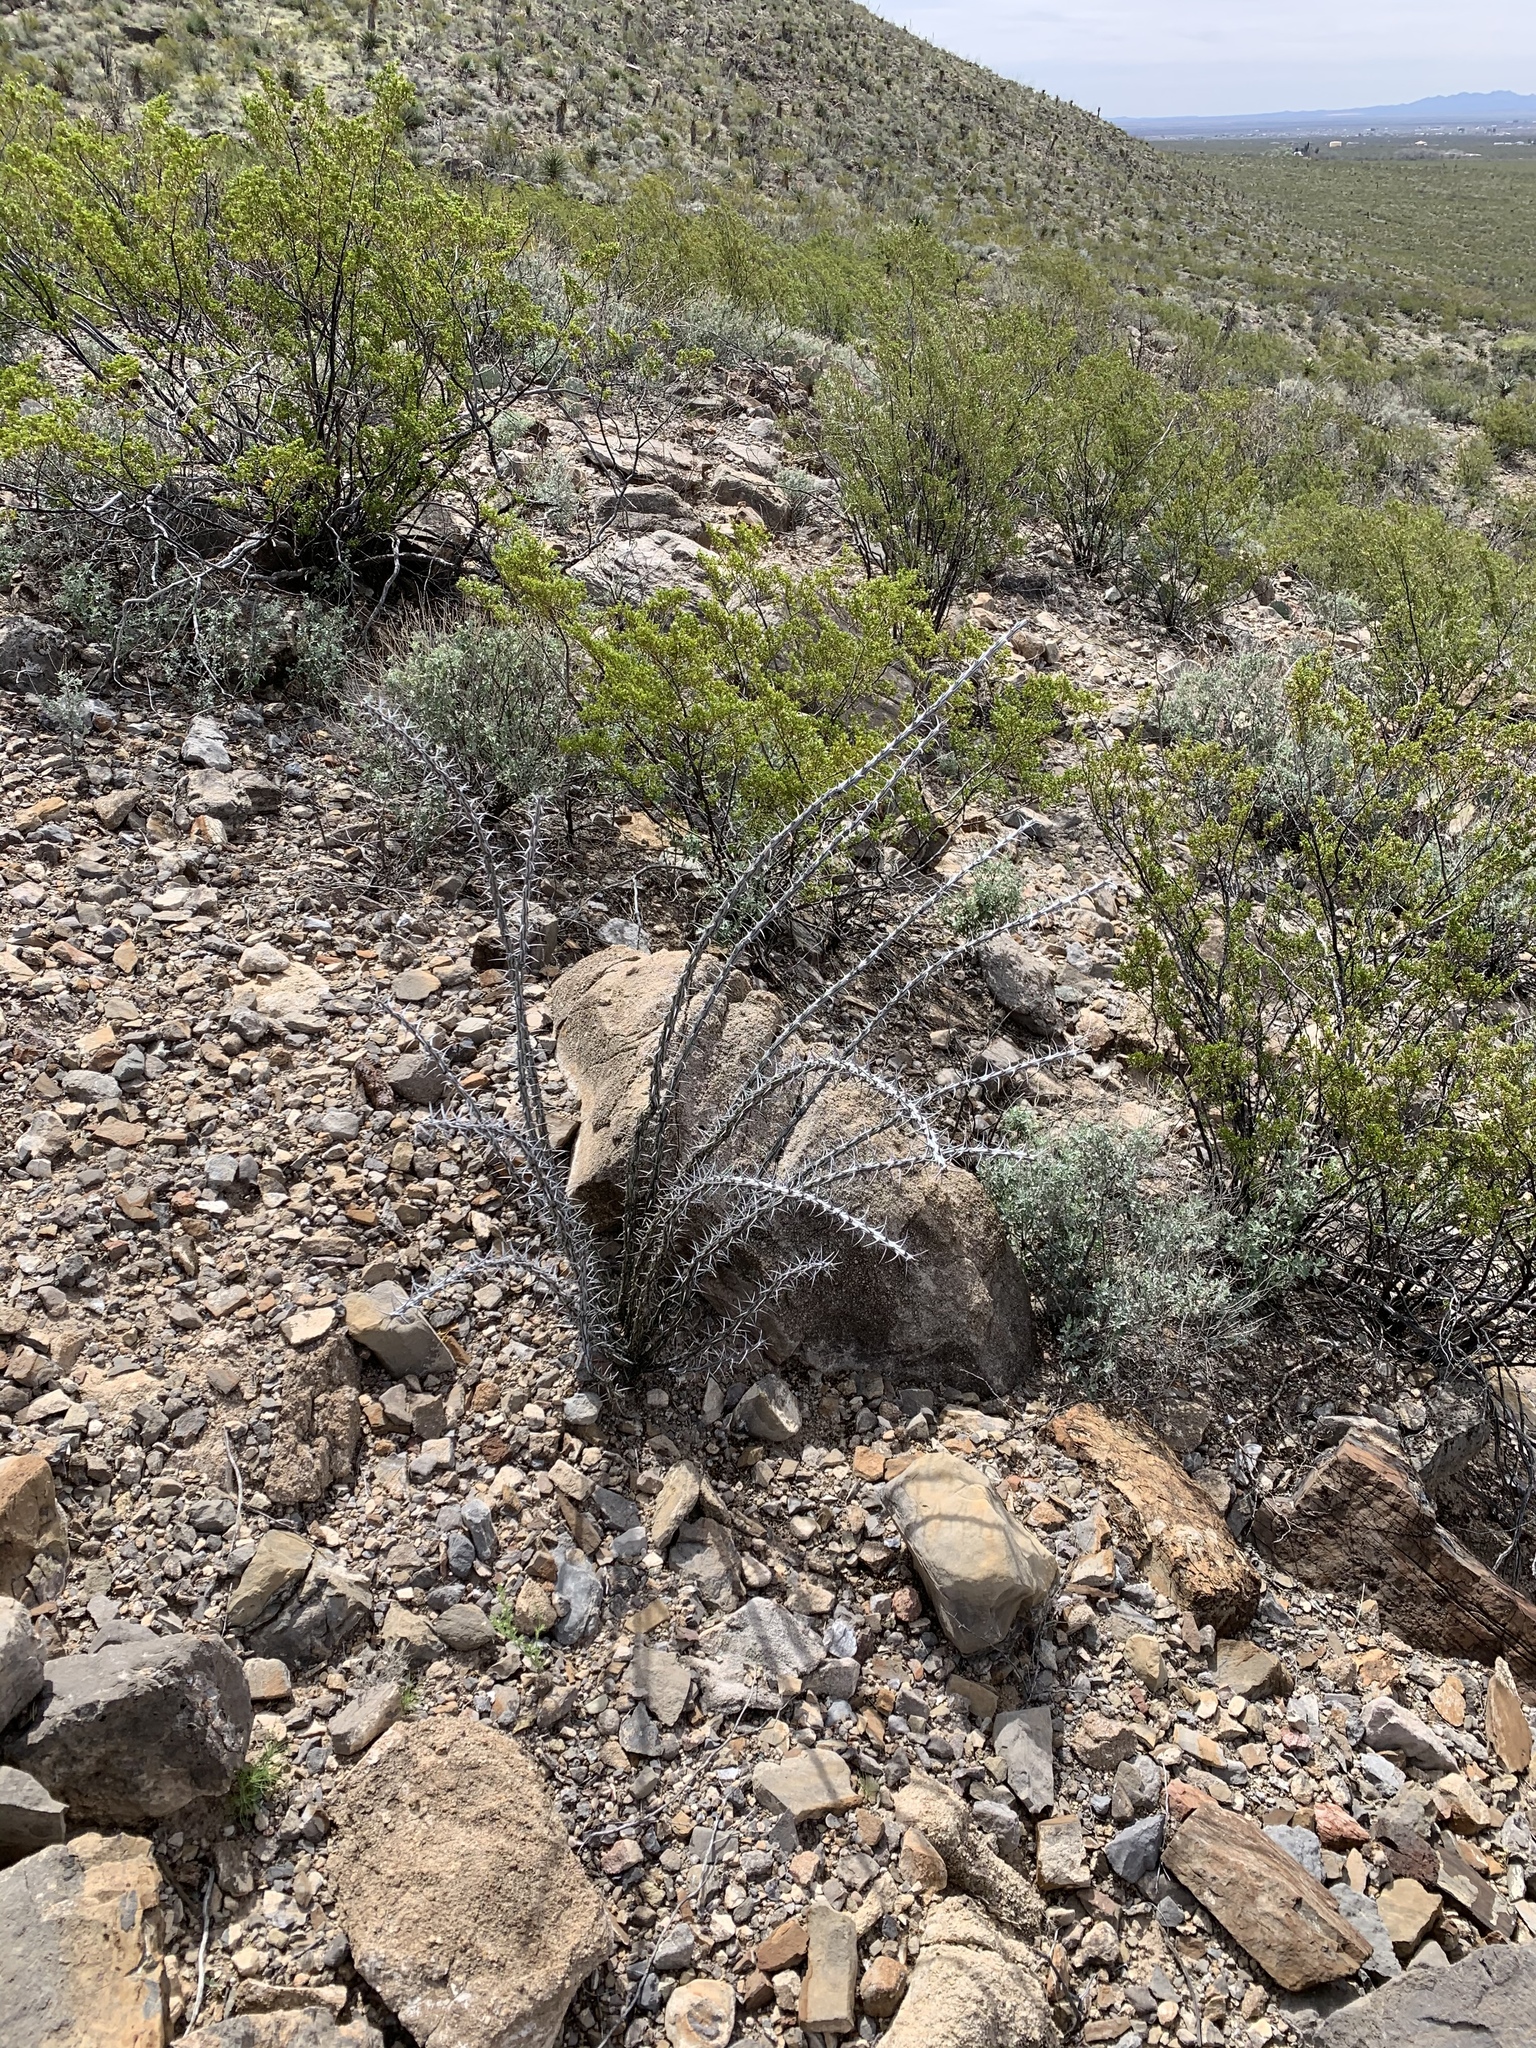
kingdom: Plantae
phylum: Tracheophyta
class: Magnoliopsida
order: Ericales
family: Fouquieriaceae
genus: Fouquieria
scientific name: Fouquieria splendens
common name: Vine-cactus
